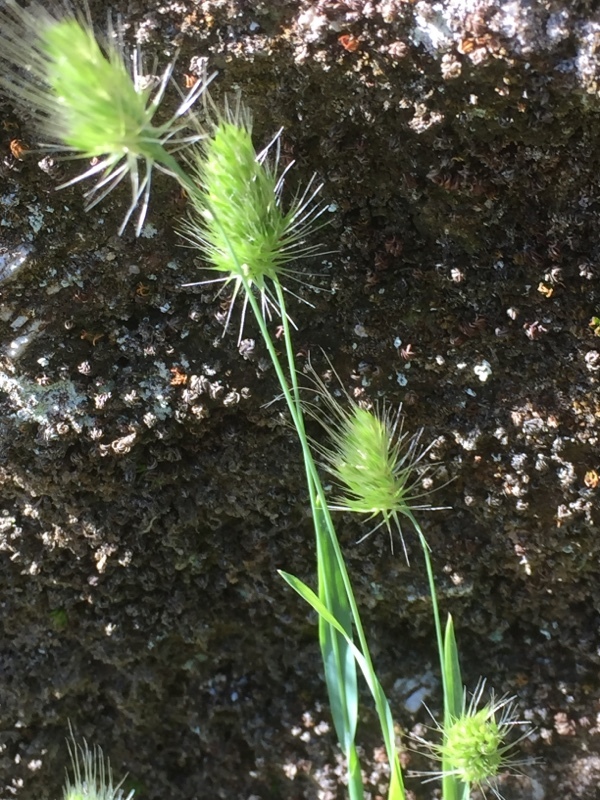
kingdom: Plantae
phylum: Tracheophyta
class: Liliopsida
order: Poales
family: Poaceae
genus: Cynosurus
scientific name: Cynosurus echinatus
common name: Rough dog's-tail
